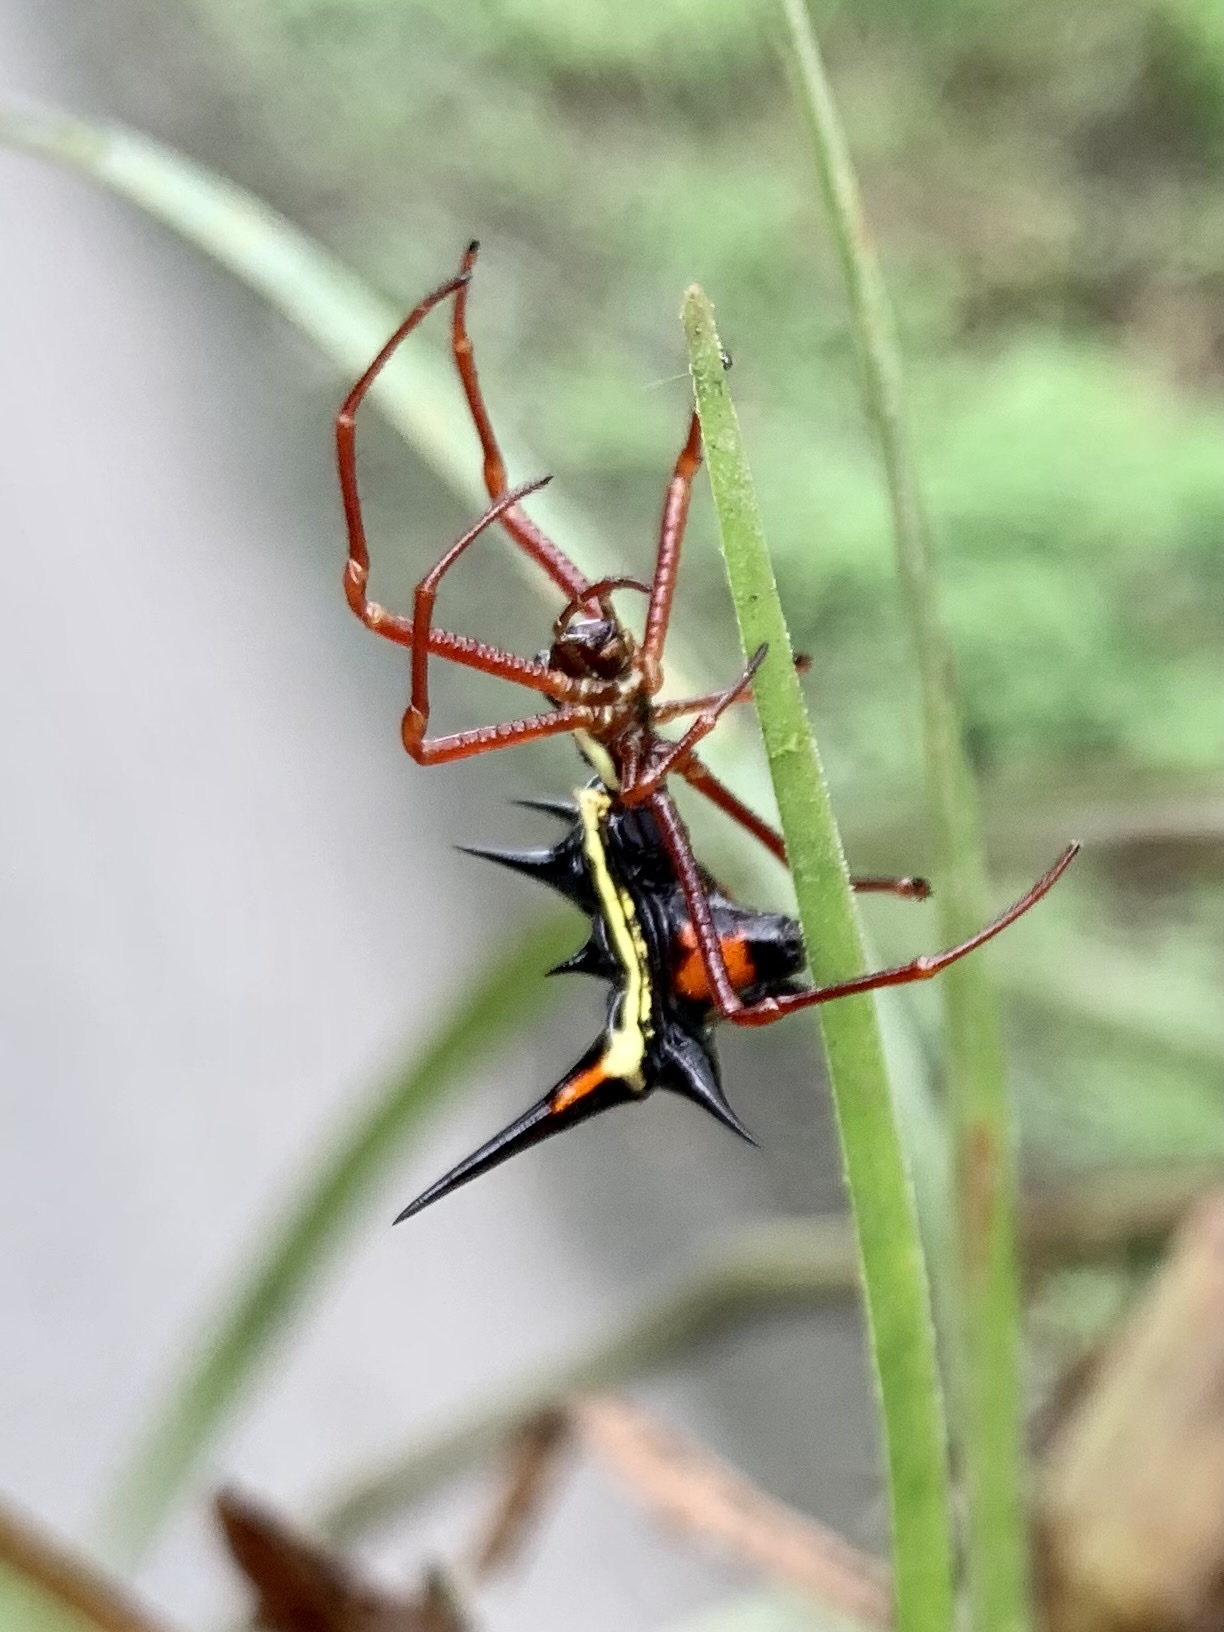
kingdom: Animalia
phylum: Arthropoda
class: Arachnida
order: Araneae
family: Araneidae
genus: Micrathena
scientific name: Micrathena schreibersi
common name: Orb weavers
